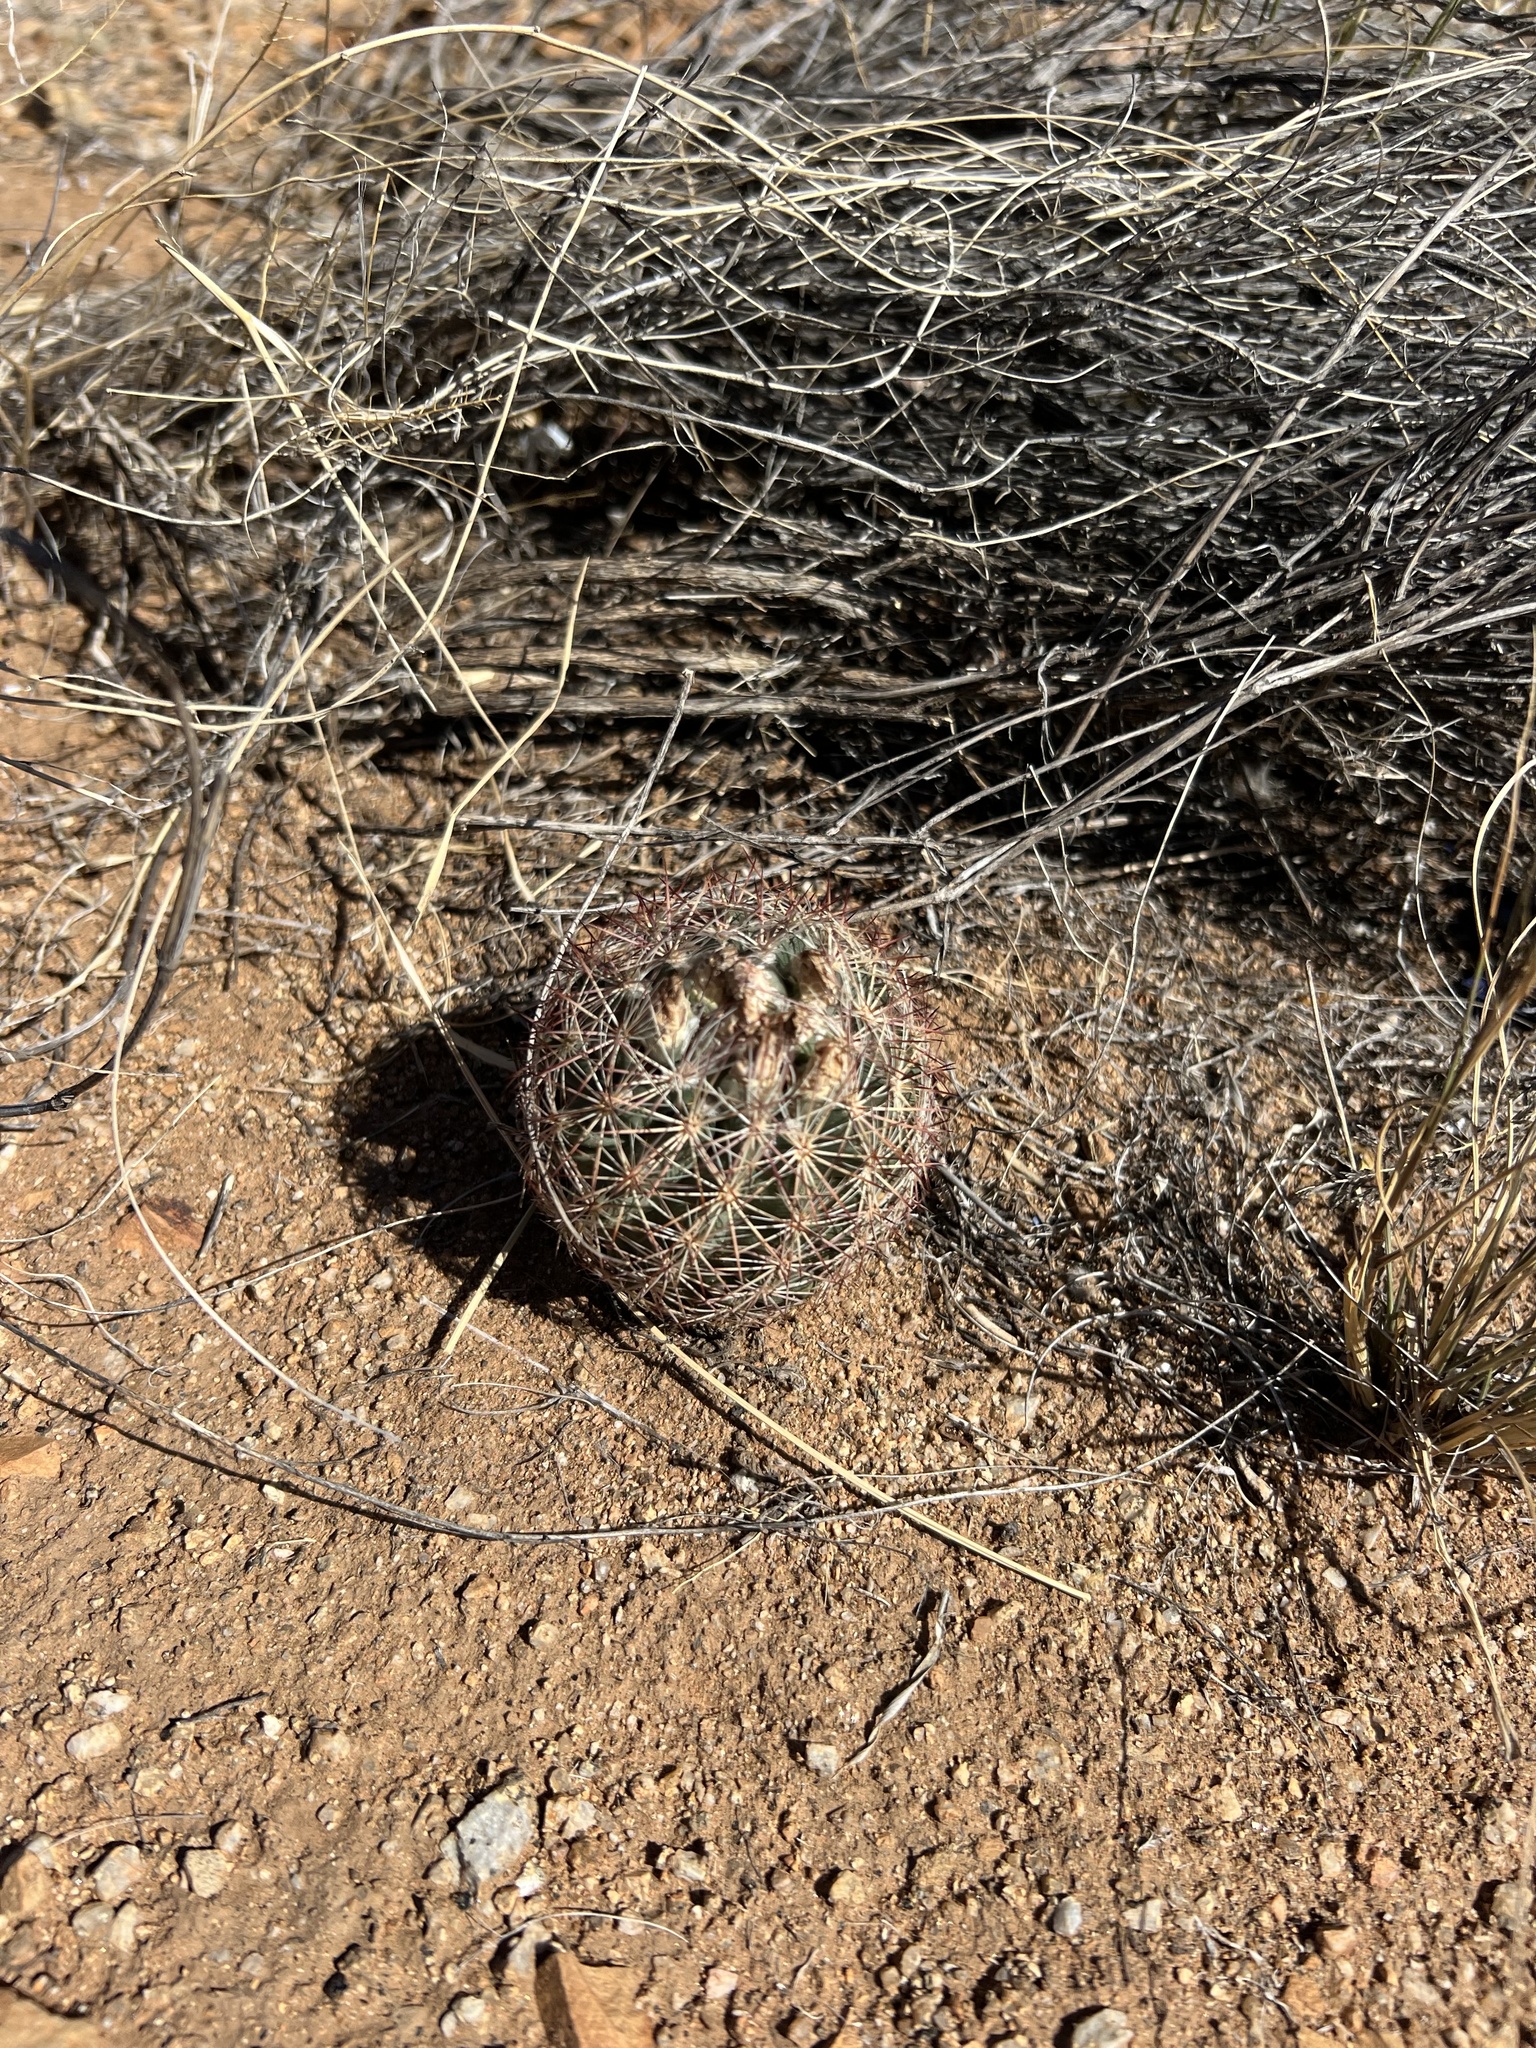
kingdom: Plantae
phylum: Tracheophyta
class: Magnoliopsida
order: Caryophyllales
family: Cactaceae
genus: Sclerocactus
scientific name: Sclerocactus intertextus
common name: White fish-hook cactus
